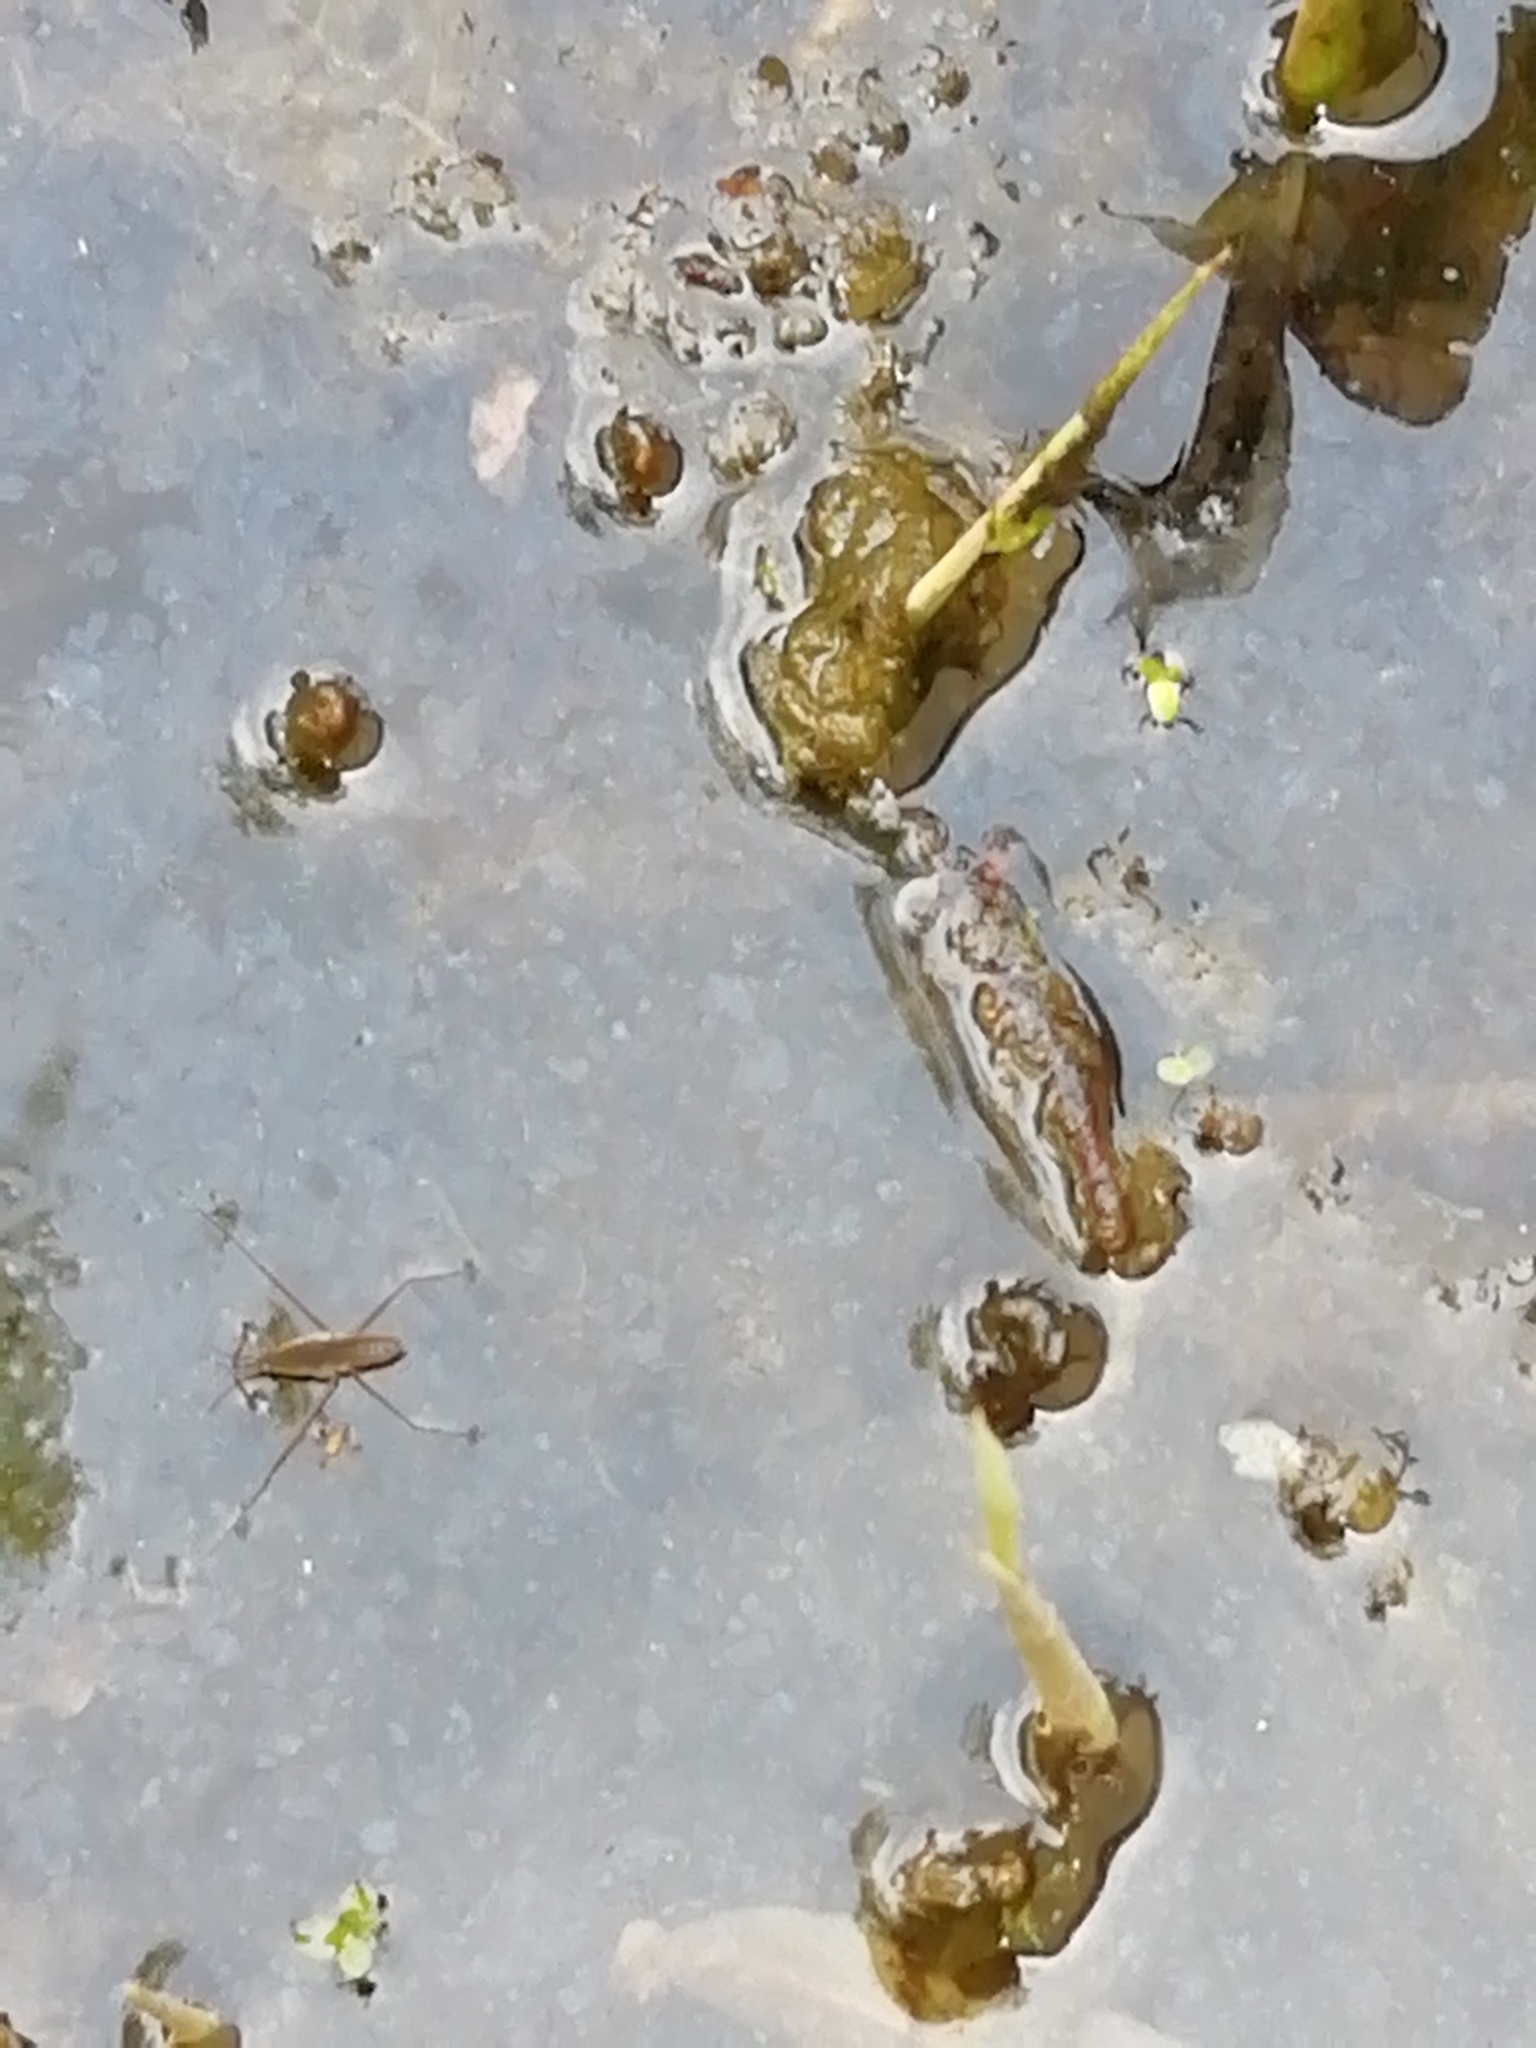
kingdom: Animalia
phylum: Arthropoda
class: Insecta
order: Hemiptera
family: Gerridae
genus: Gerris
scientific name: Gerris
